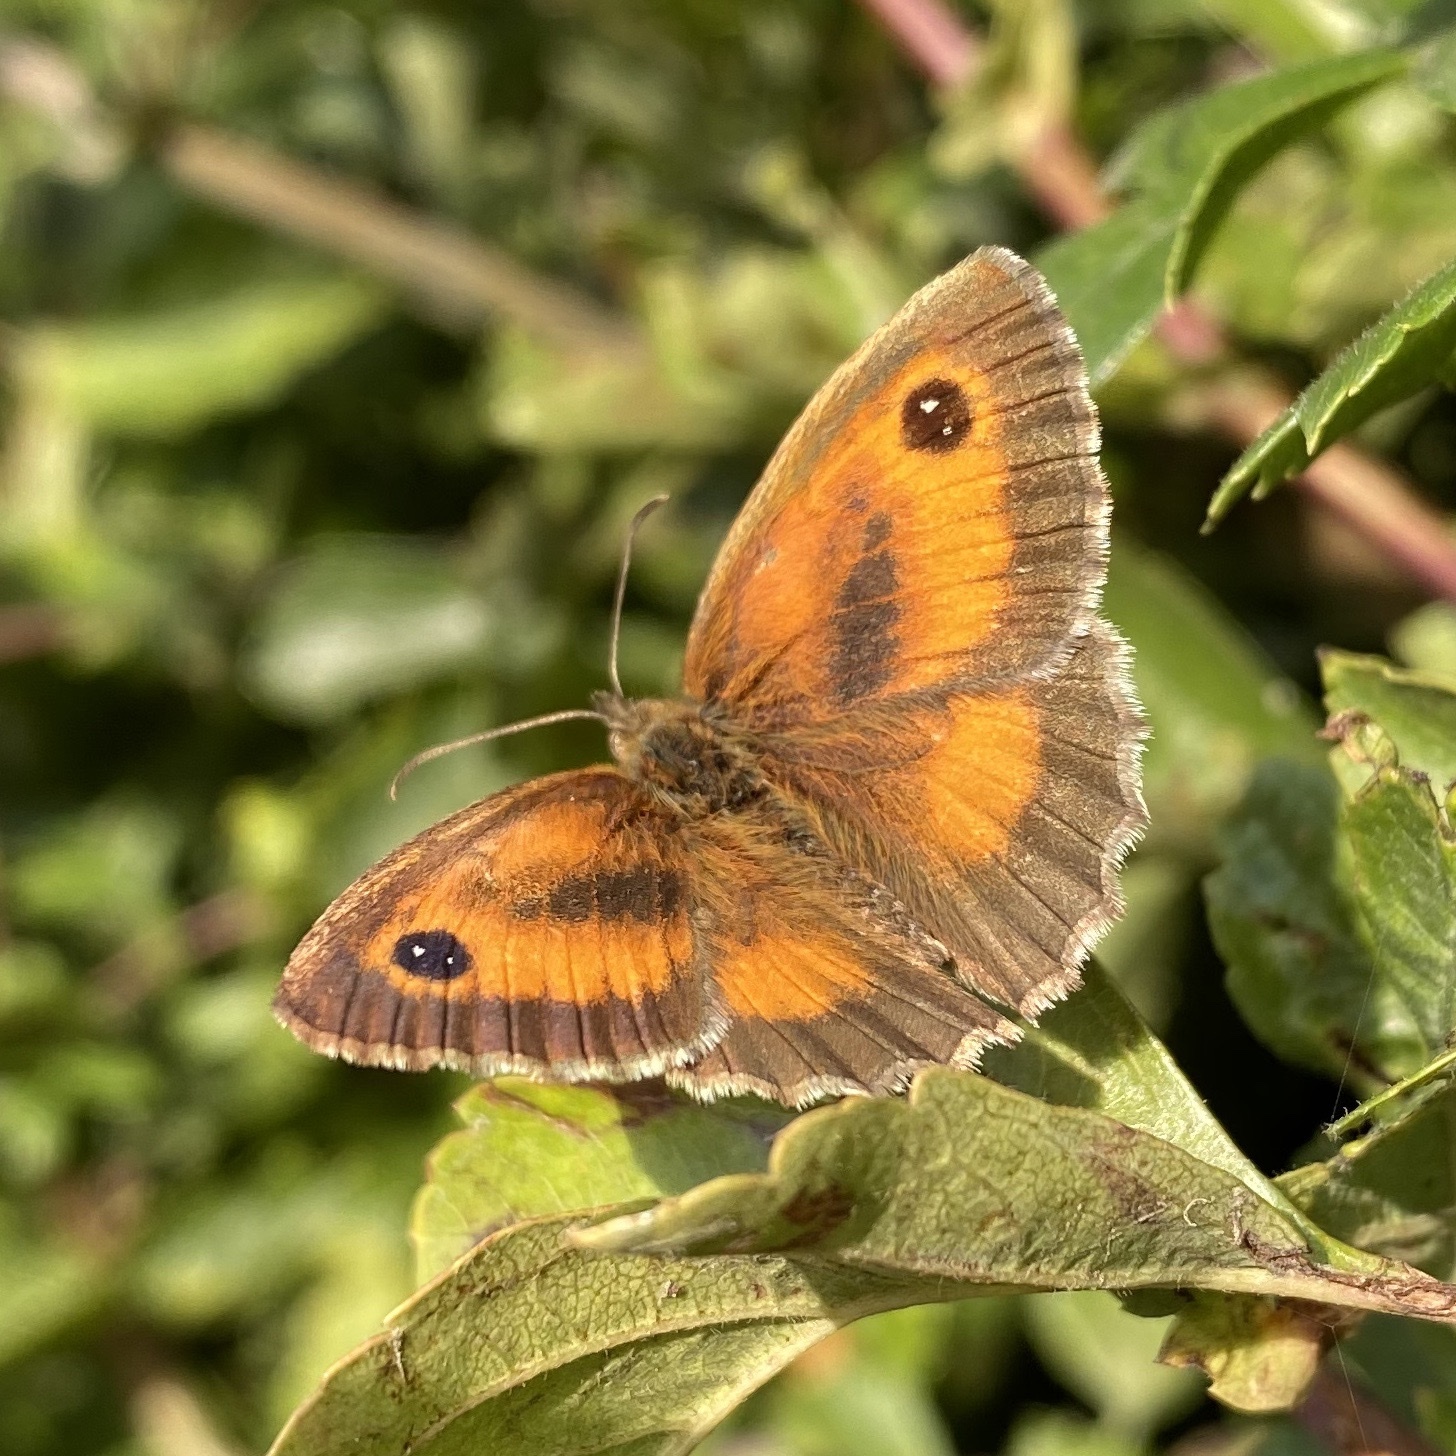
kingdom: Animalia
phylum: Arthropoda
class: Insecta
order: Lepidoptera
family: Nymphalidae
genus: Pyronia
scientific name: Pyronia tithonus
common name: Gatekeeper
